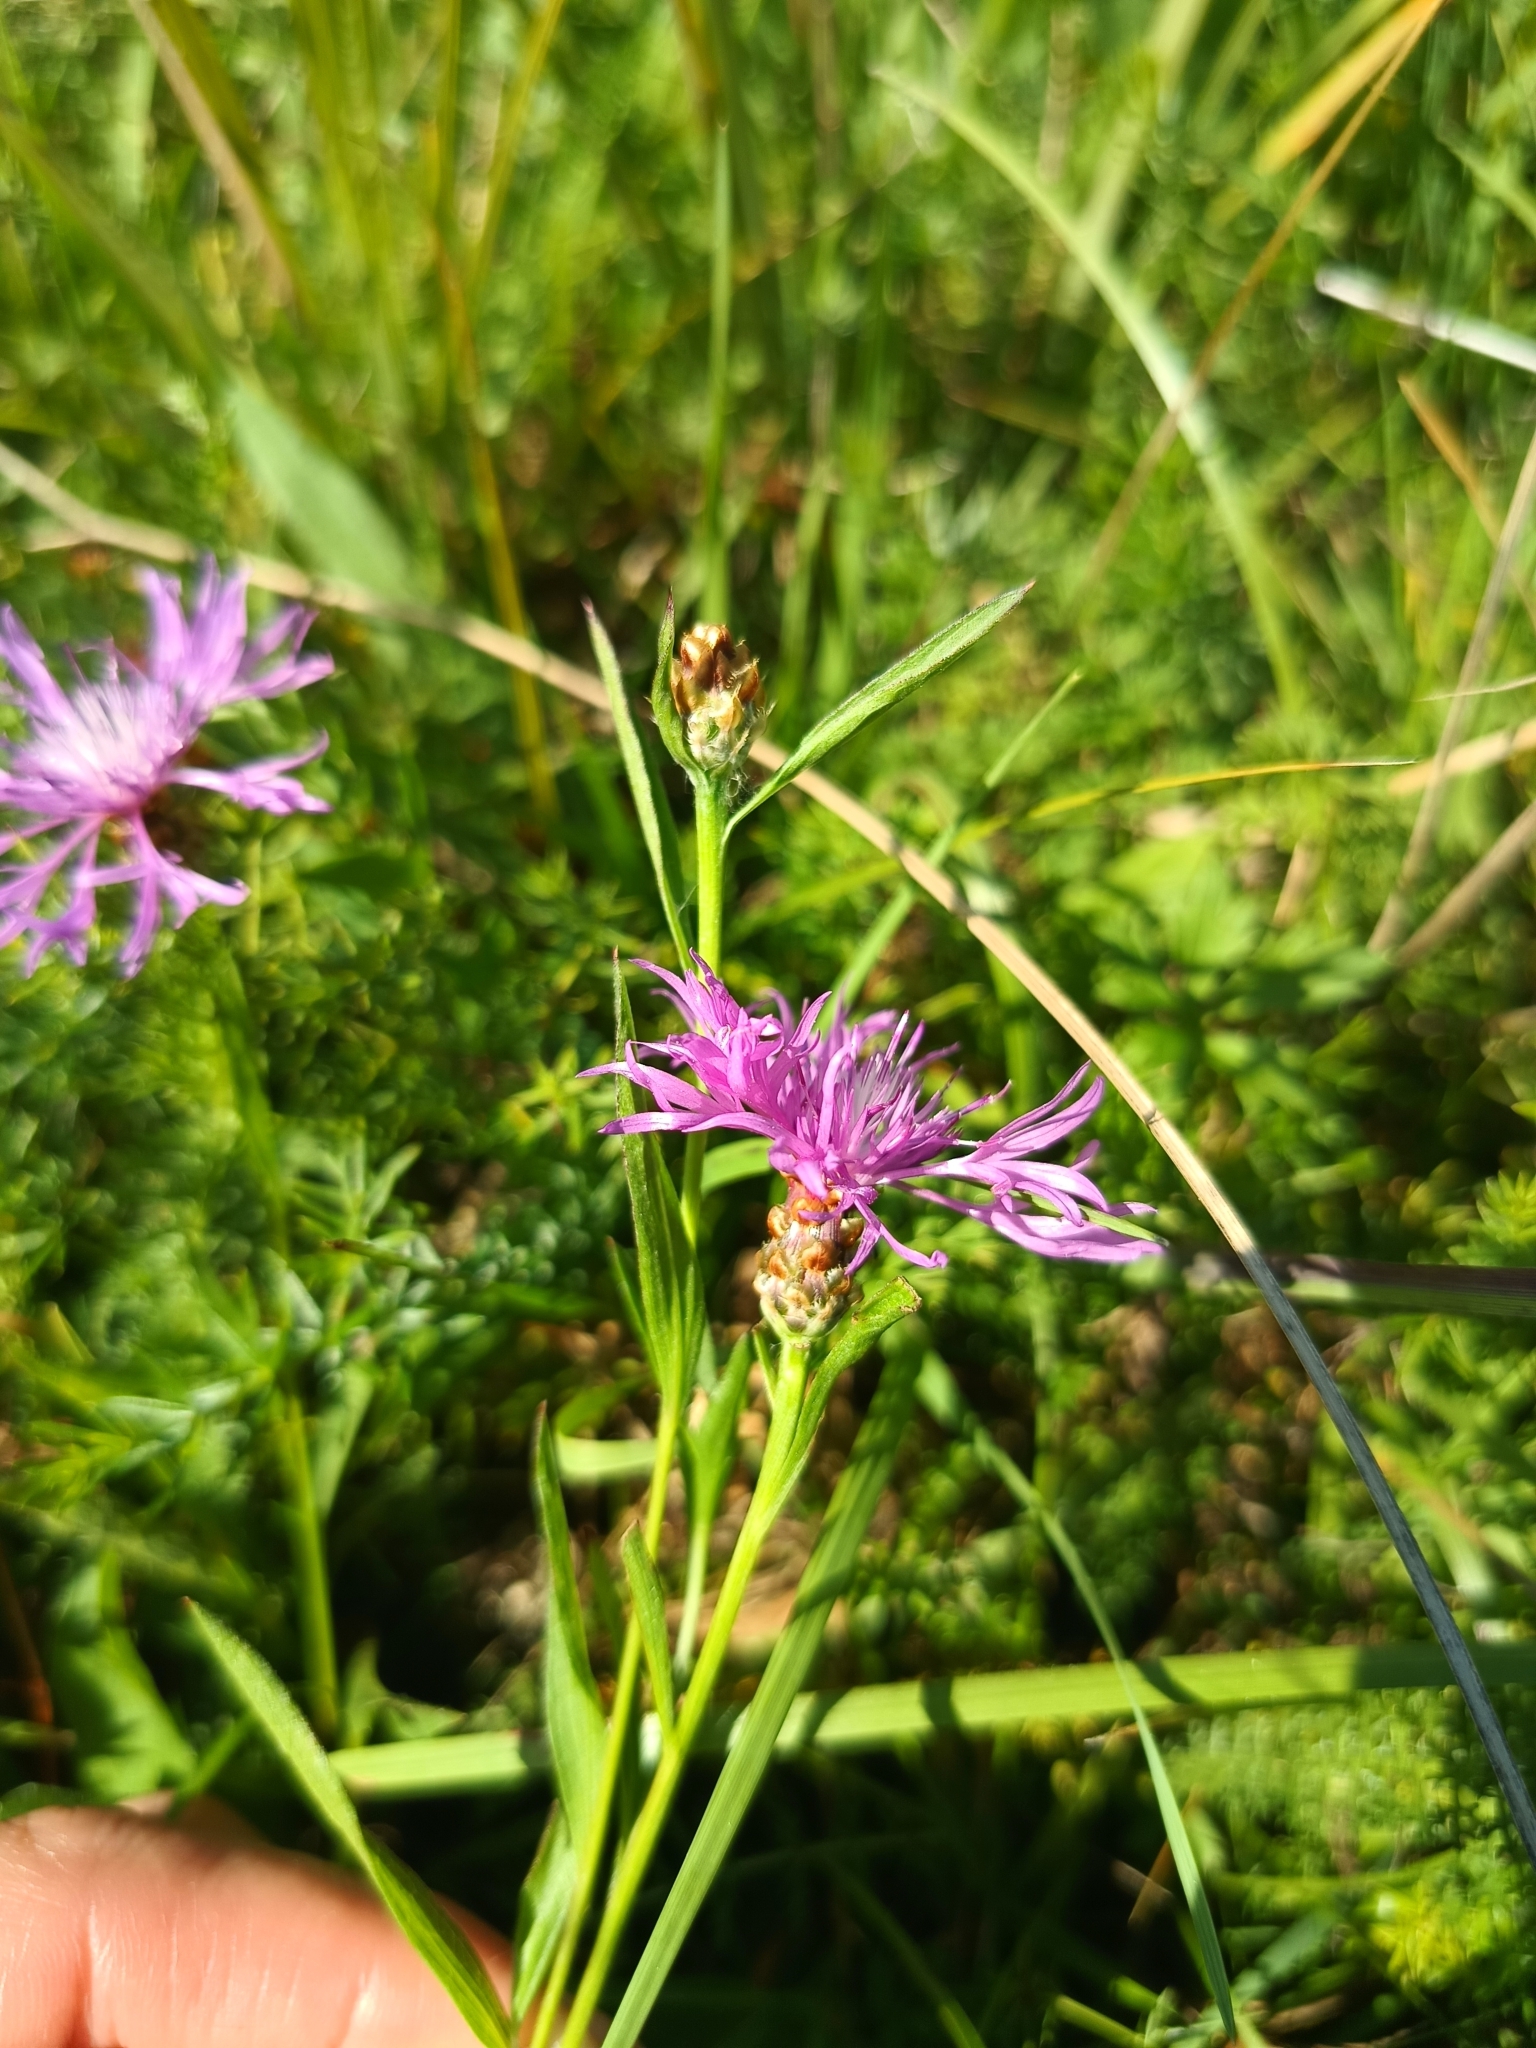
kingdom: Plantae
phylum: Tracheophyta
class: Magnoliopsida
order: Asterales
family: Asteraceae
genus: Centaurea
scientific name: Centaurea jacea
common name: Brown knapweed
